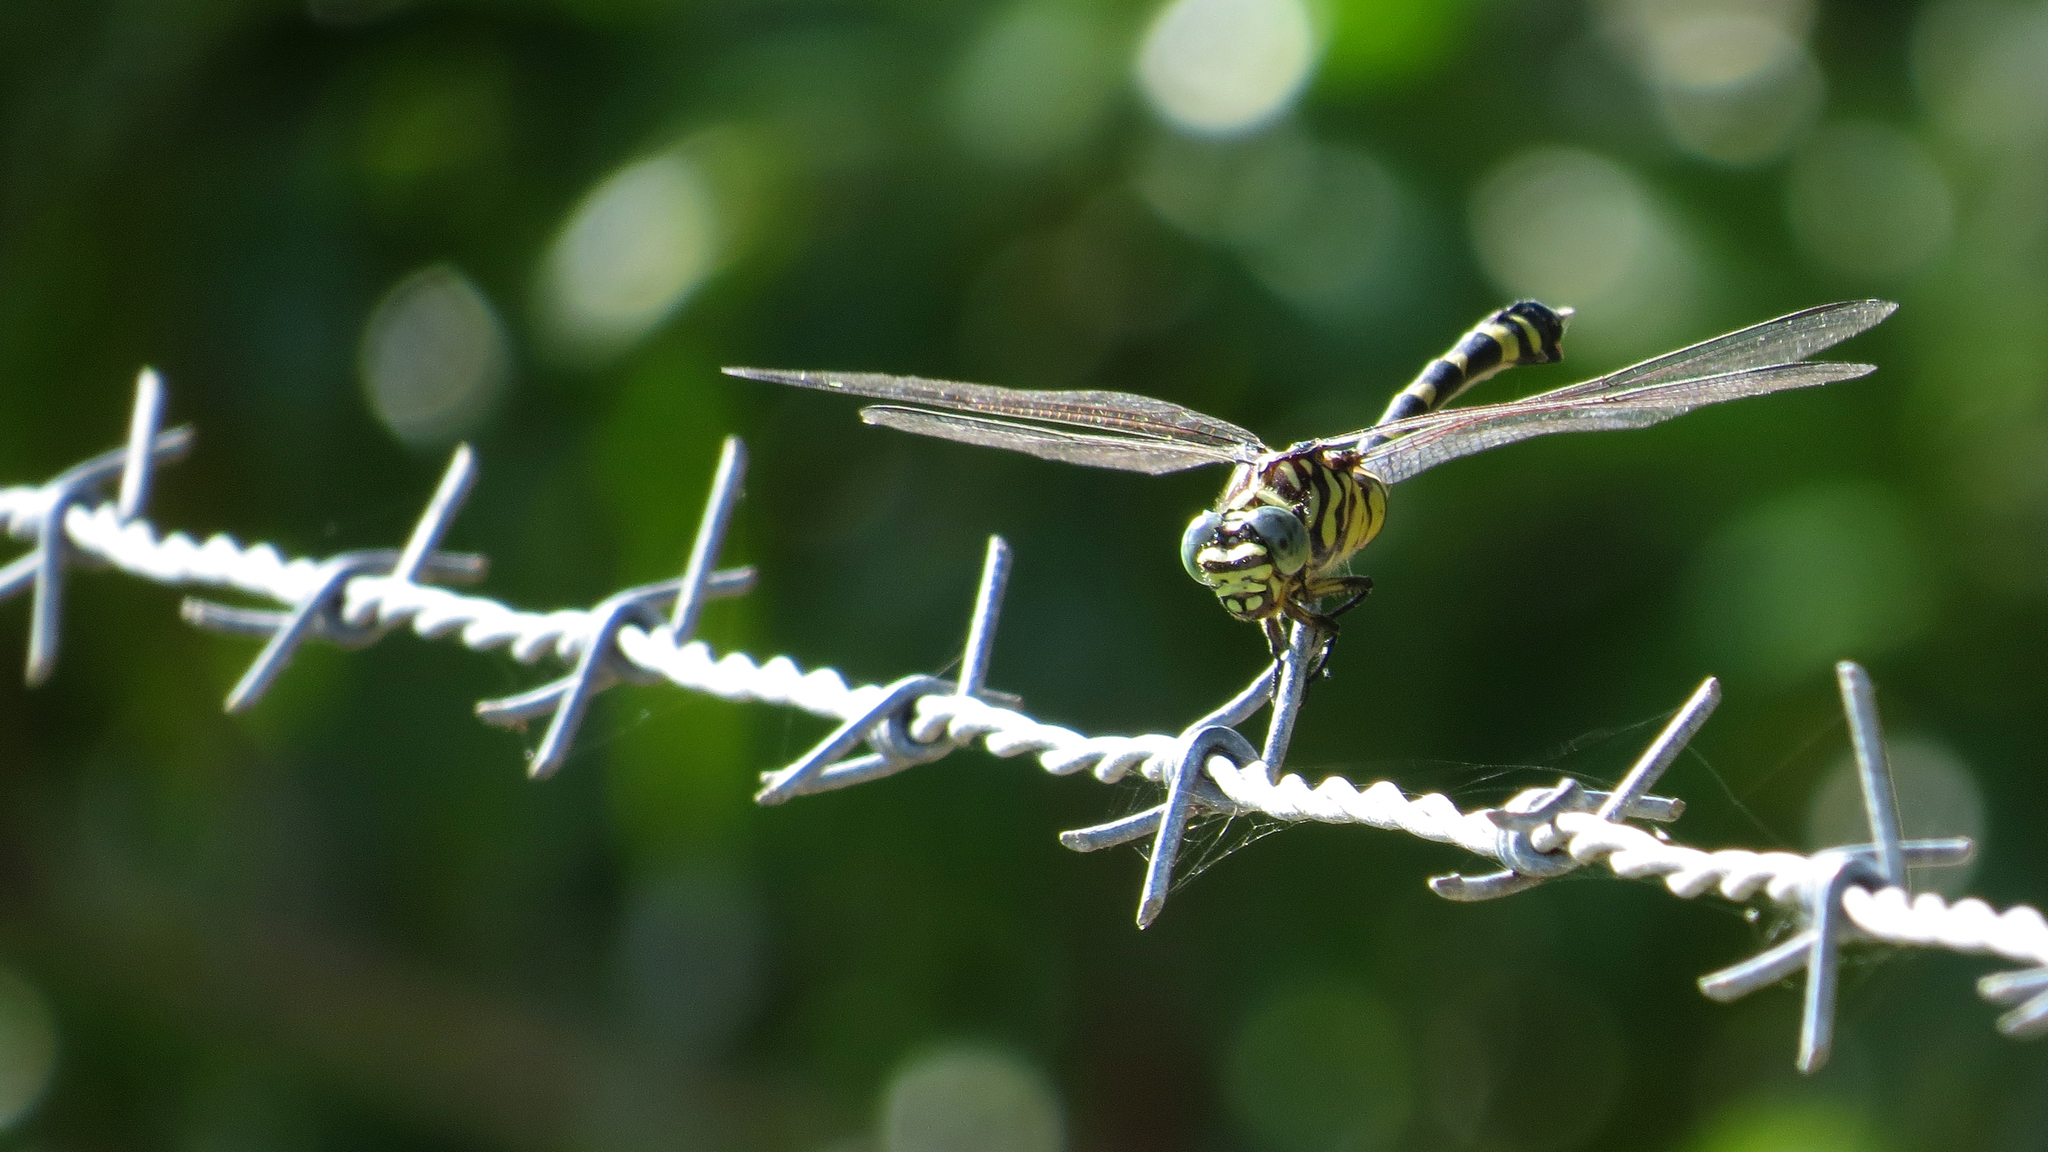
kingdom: Animalia
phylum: Arthropoda
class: Insecta
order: Odonata
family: Gomphidae
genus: Ictinogomphus
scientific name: Ictinogomphus australis
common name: Australian tiger
